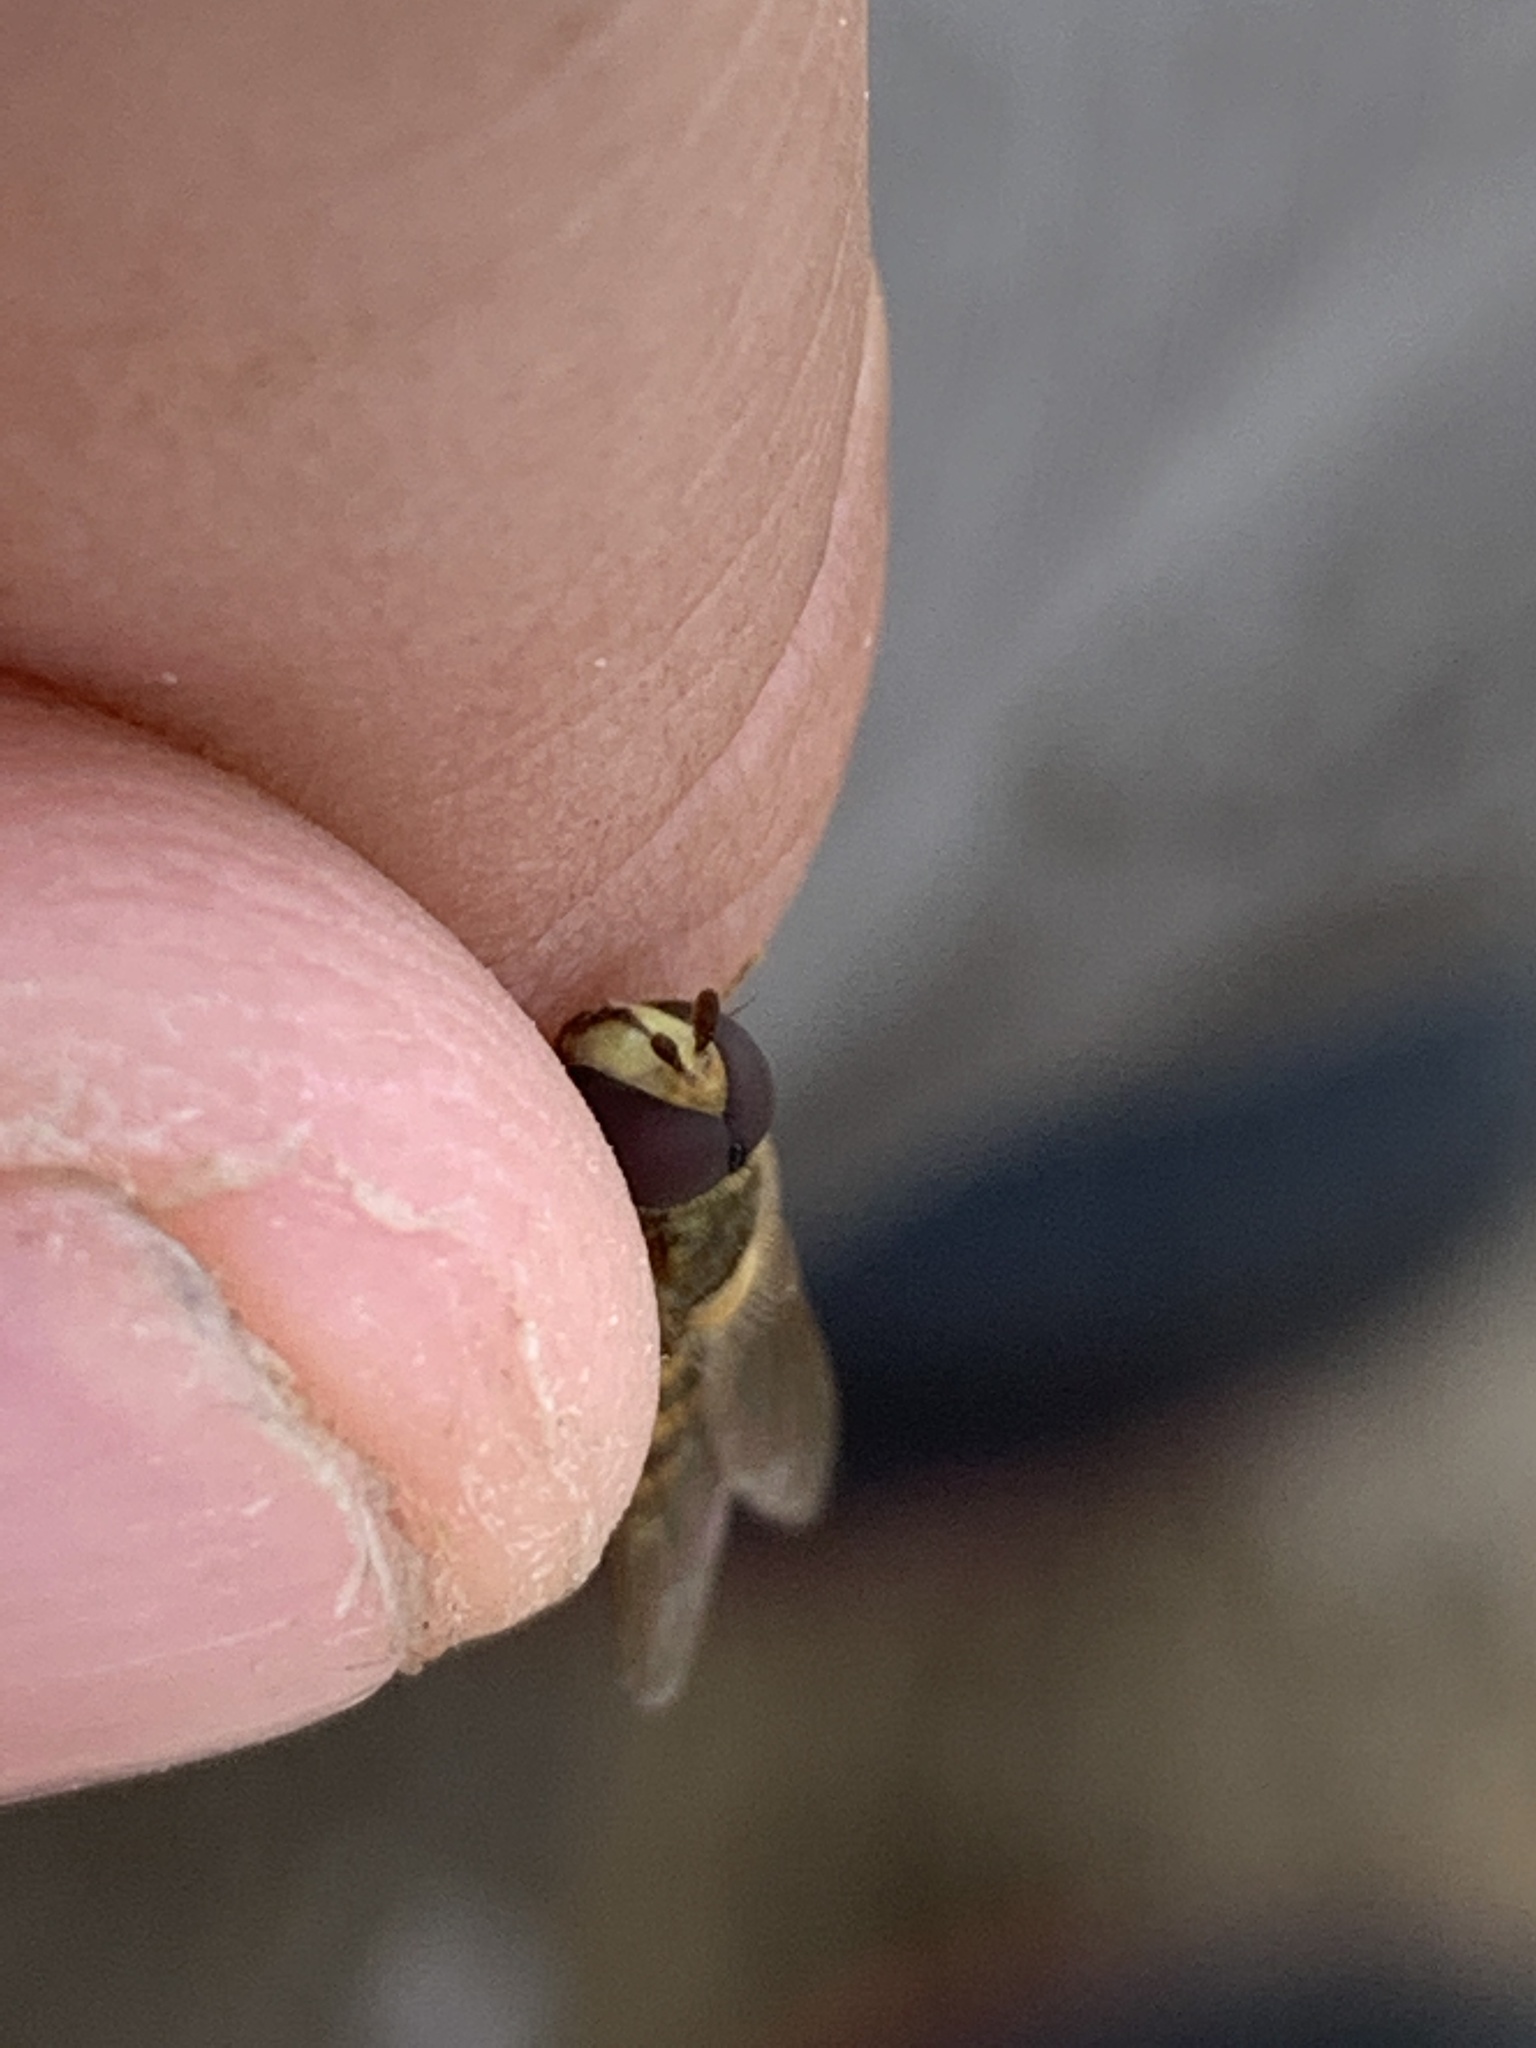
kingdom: Animalia
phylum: Arthropoda
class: Insecta
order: Diptera
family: Syrphidae
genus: Eupeodes
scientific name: Eupeodes
